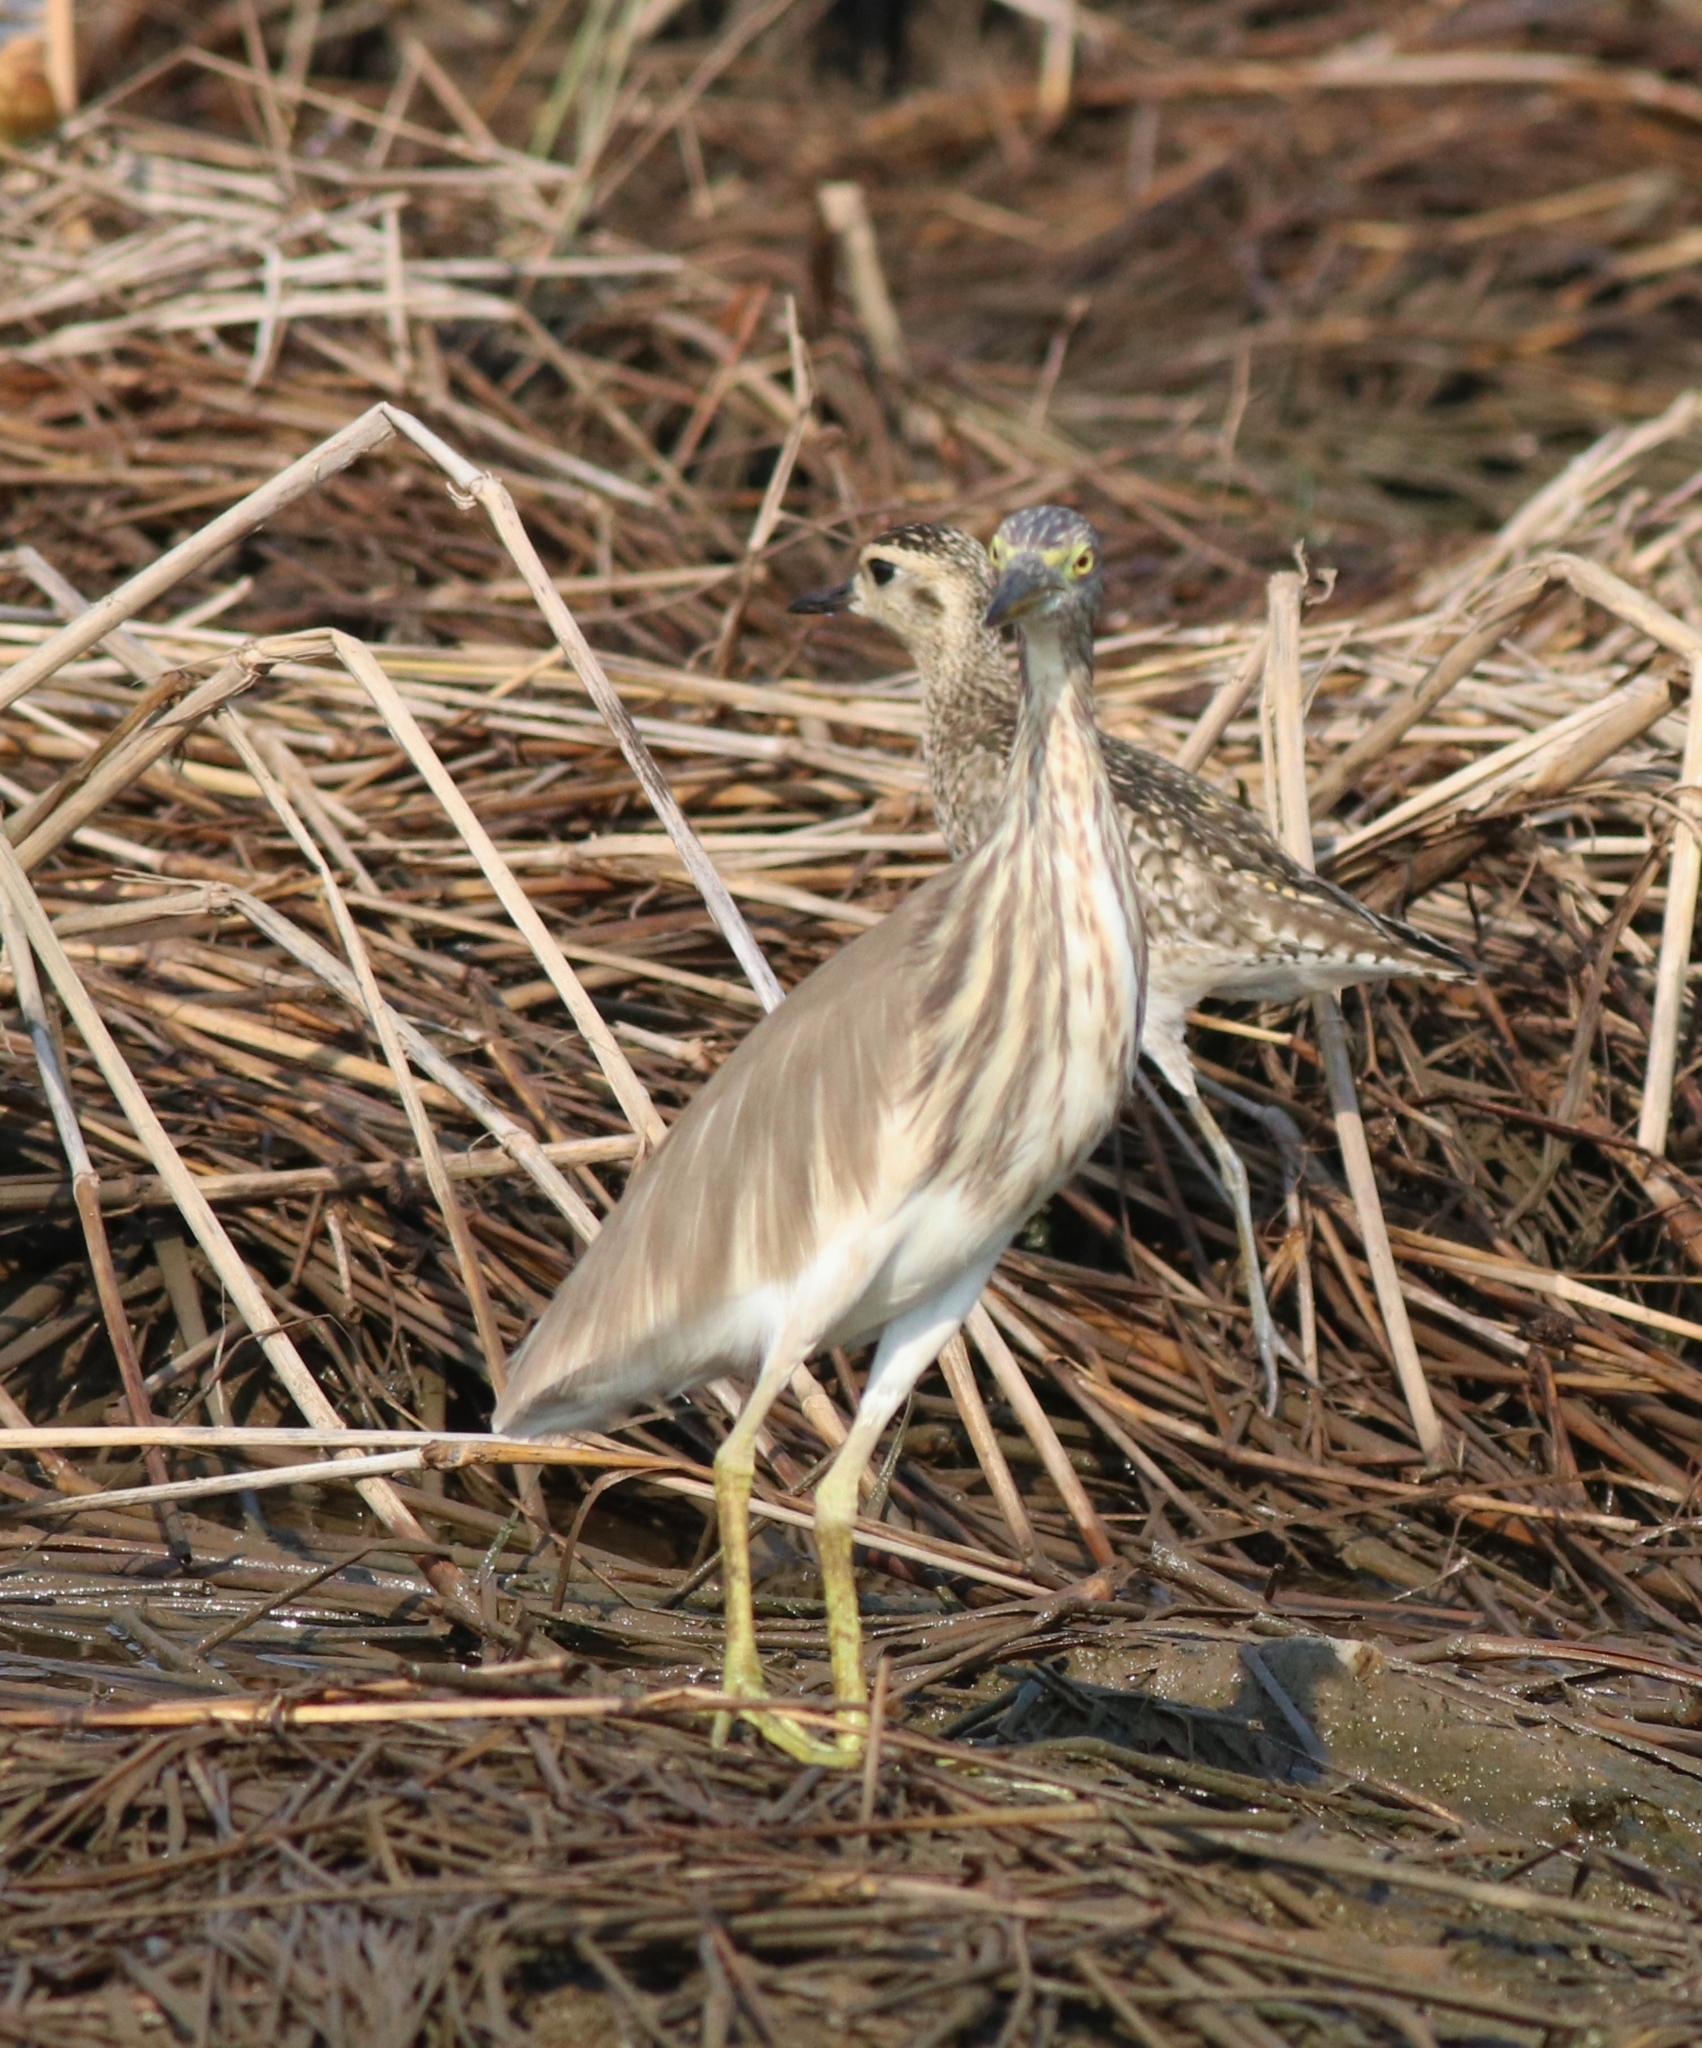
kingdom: Animalia
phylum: Chordata
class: Aves
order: Pelecaniformes
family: Ardeidae
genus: Ardeola
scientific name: Ardeola grayii
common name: Indian pond heron
